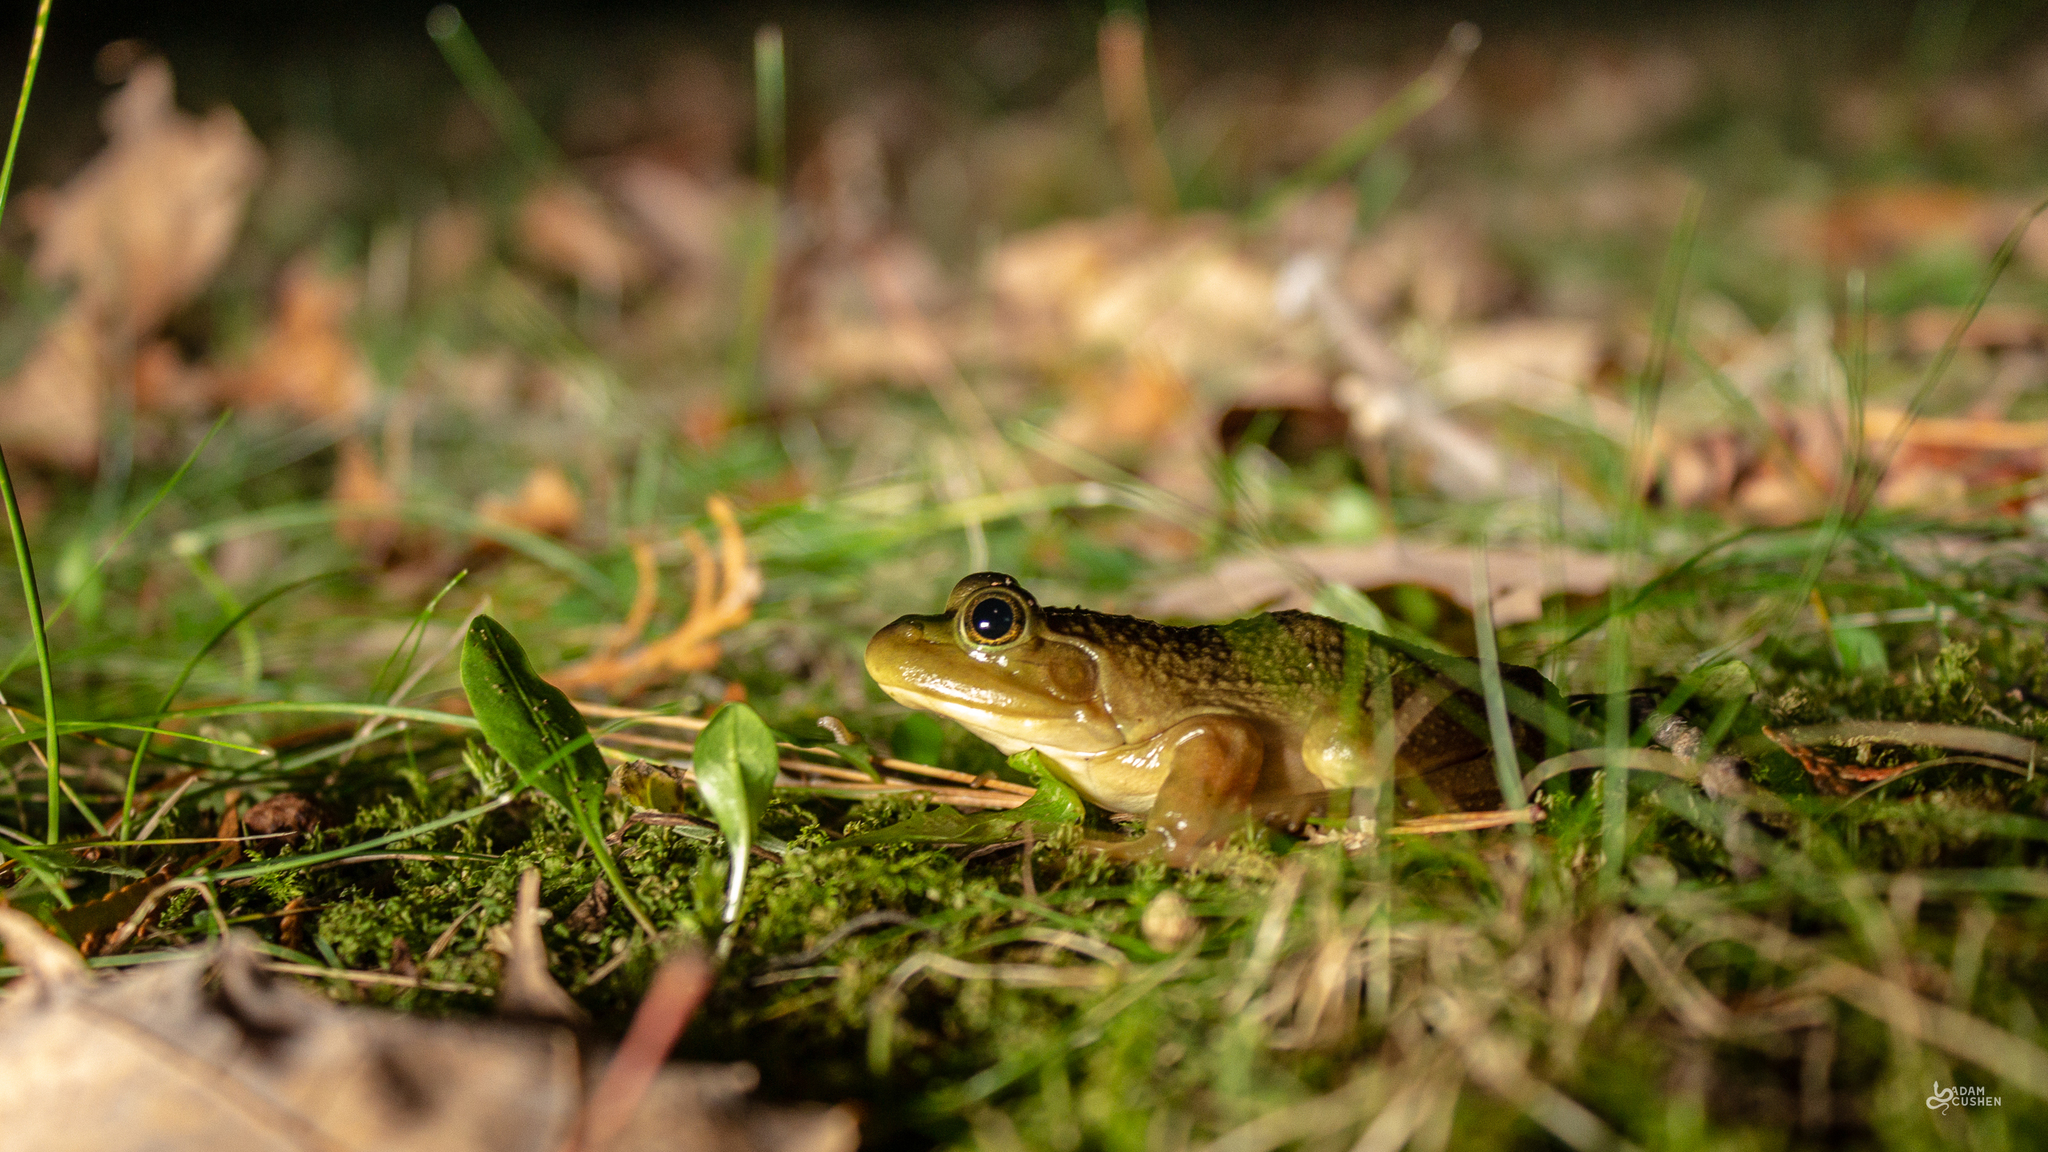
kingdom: Animalia
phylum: Chordata
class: Amphibia
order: Anura
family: Ranidae
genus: Lithobates
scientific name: Lithobates catesbeianus
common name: American bullfrog
